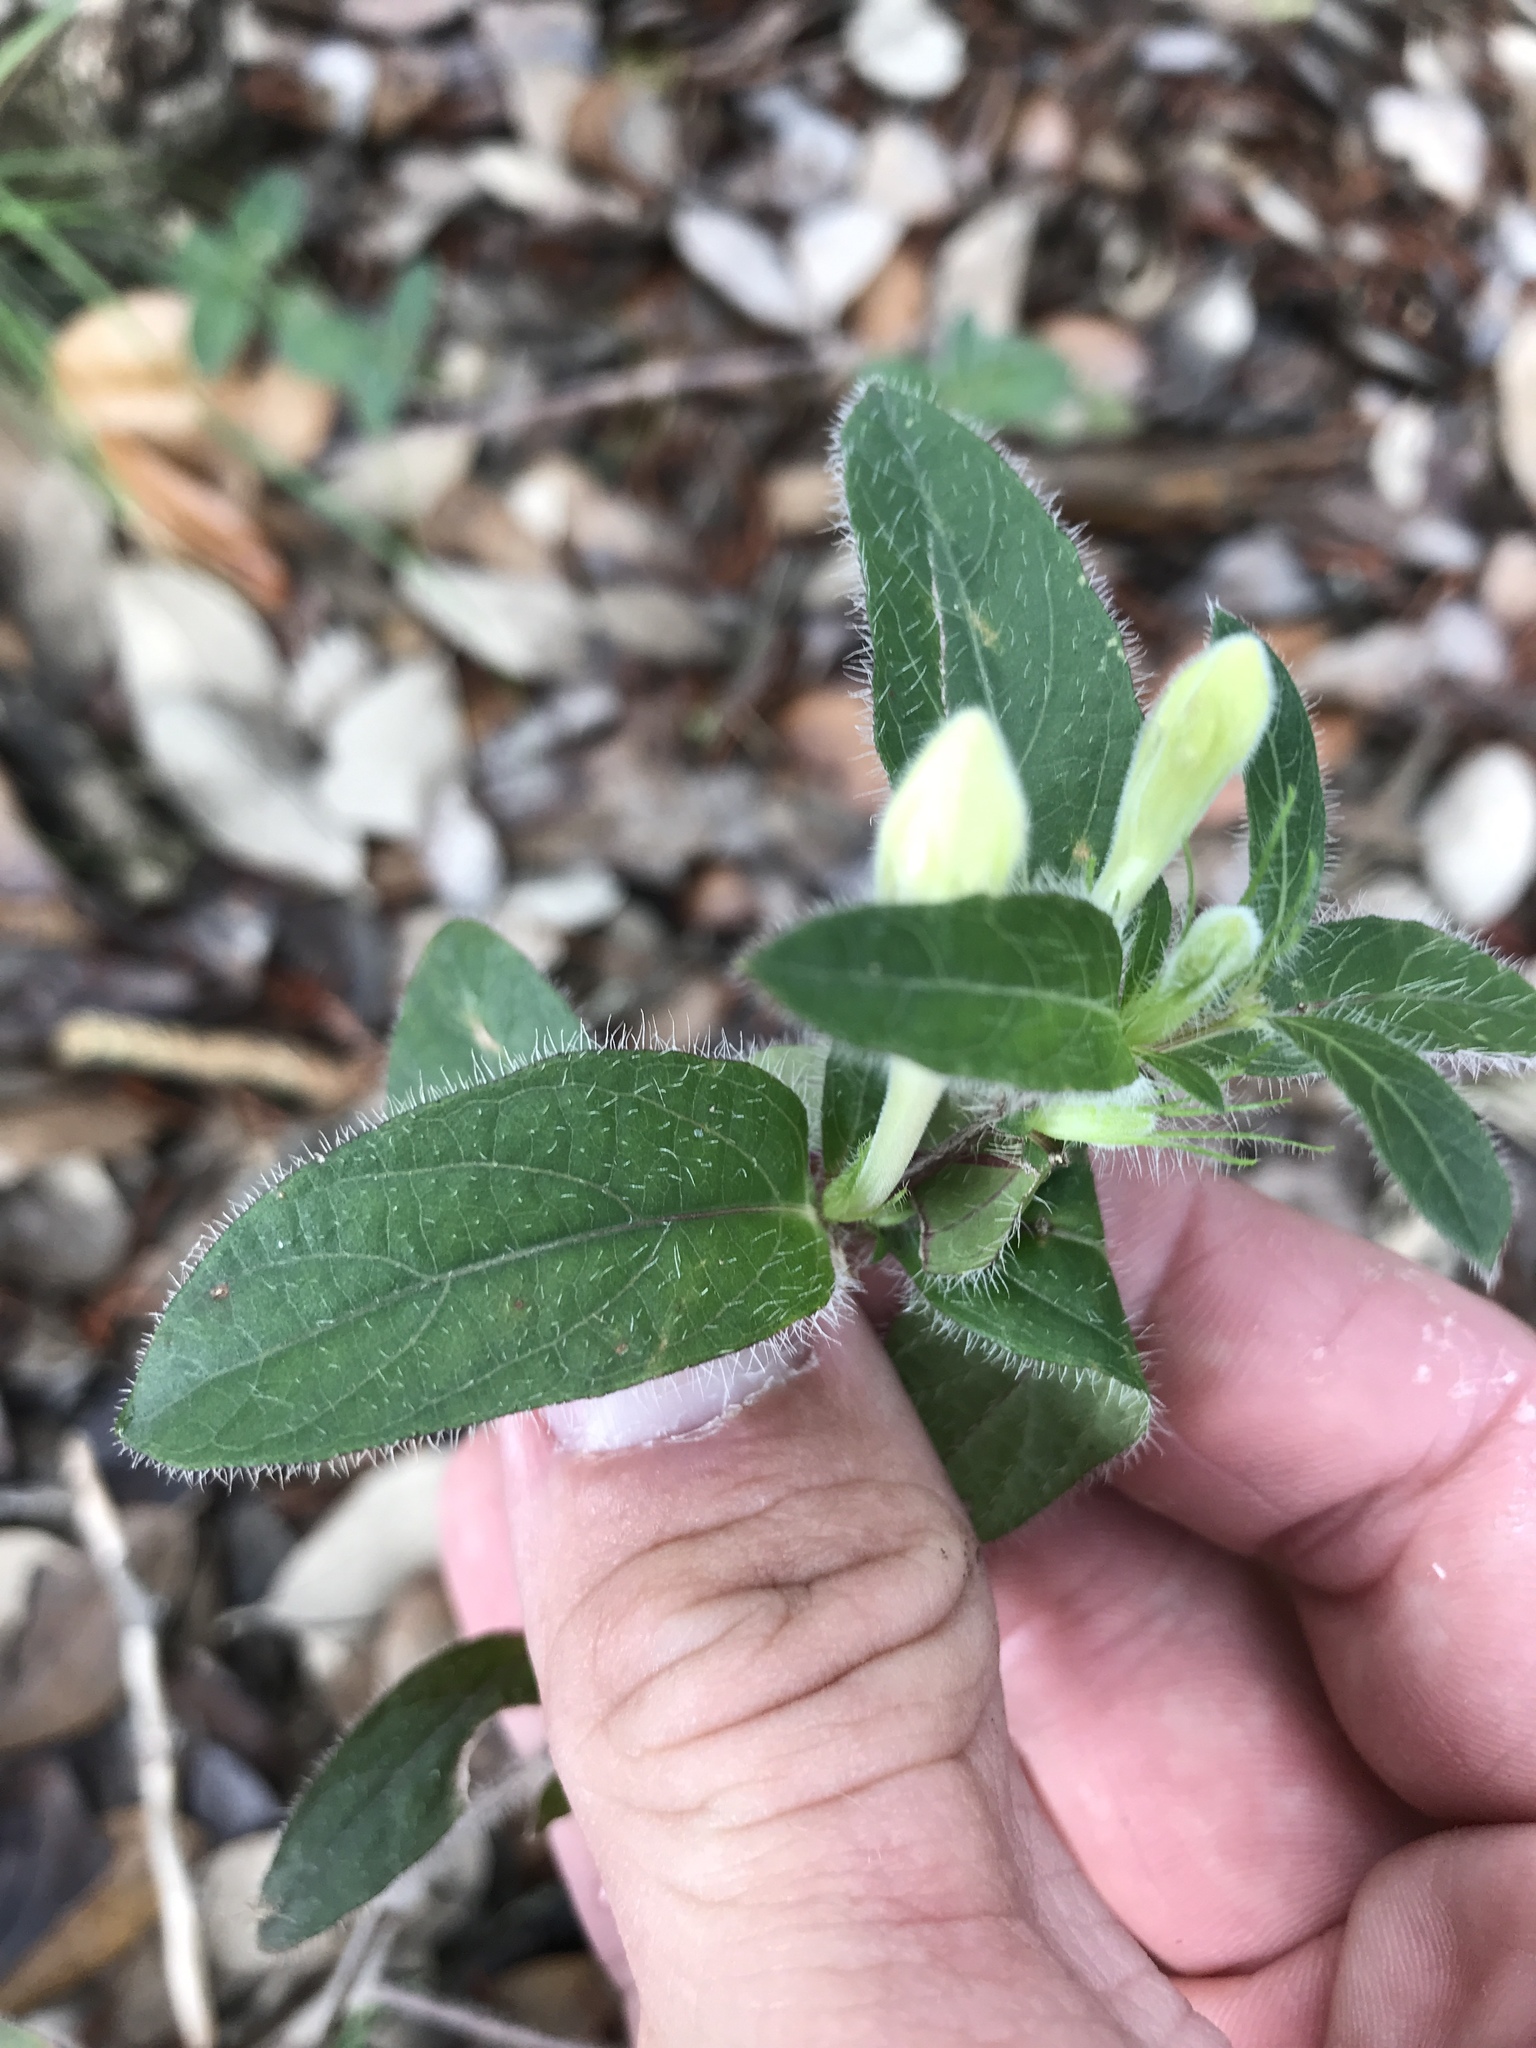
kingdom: Plantae
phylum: Tracheophyta
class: Magnoliopsida
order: Lamiales
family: Acanthaceae
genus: Ruellia
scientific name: Ruellia humilis
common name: Fringe-leaf ruellia
